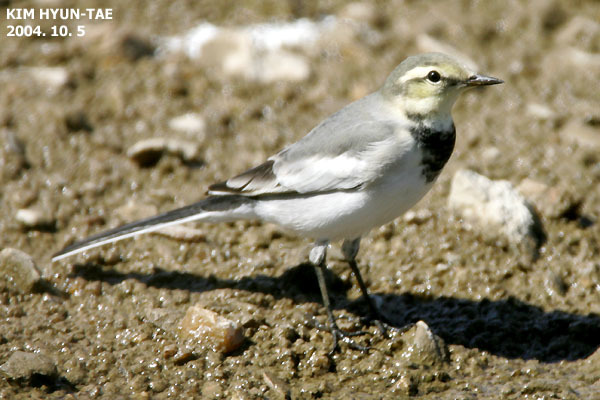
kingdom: Animalia
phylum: Chordata
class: Aves
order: Passeriformes
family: Motacillidae
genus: Motacilla
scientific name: Motacilla alba
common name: White wagtail
